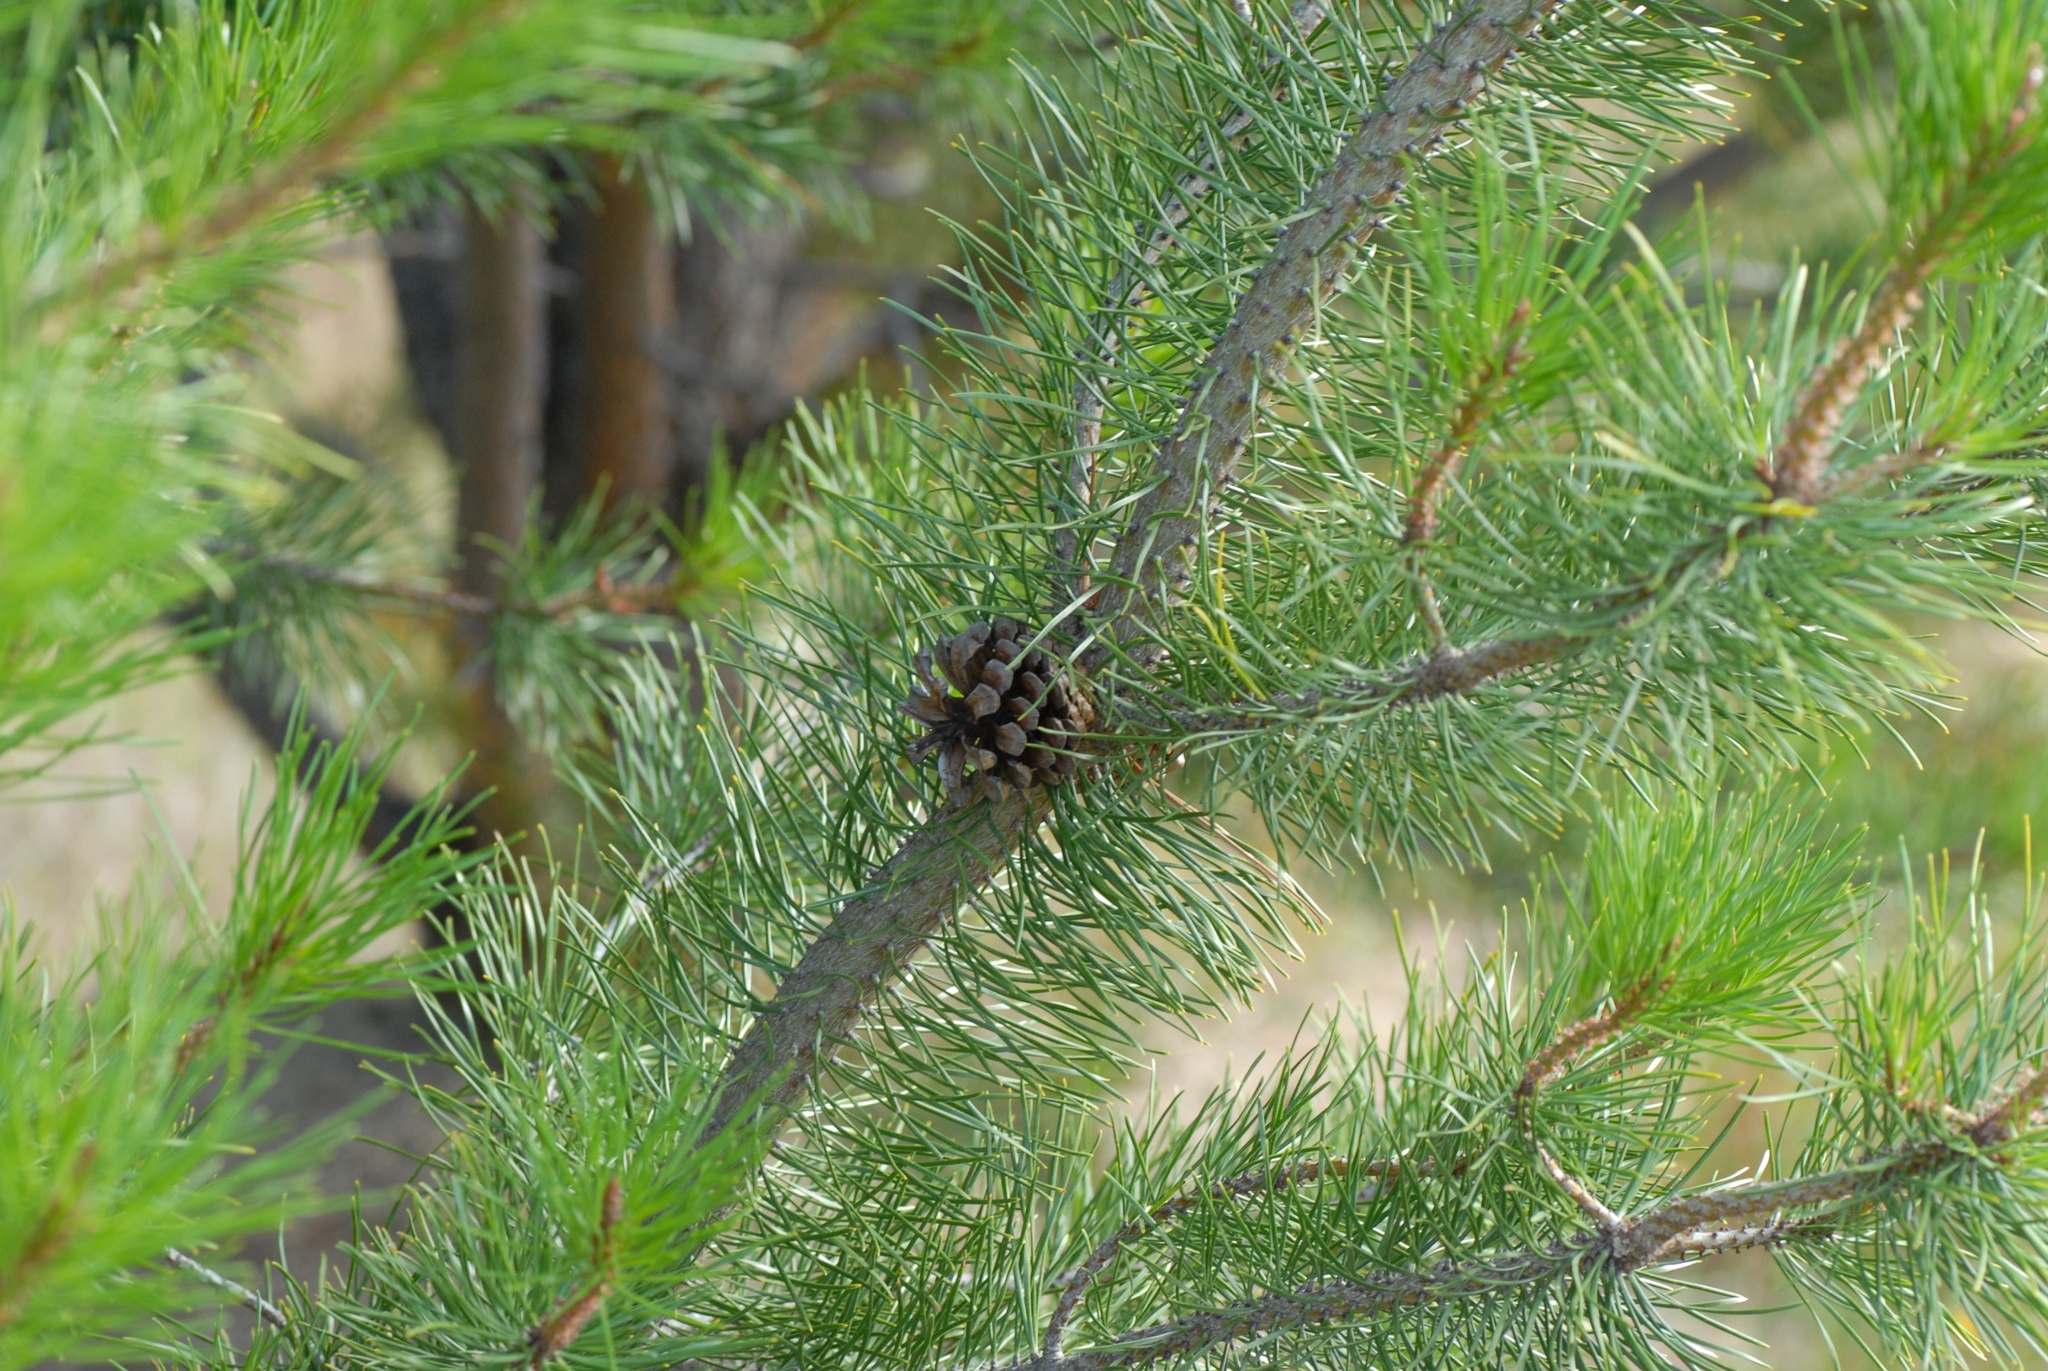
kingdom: Plantae
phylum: Tracheophyta
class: Pinopsida
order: Pinales
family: Pinaceae
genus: Pinus
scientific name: Pinus nigra
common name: Austrian pine
